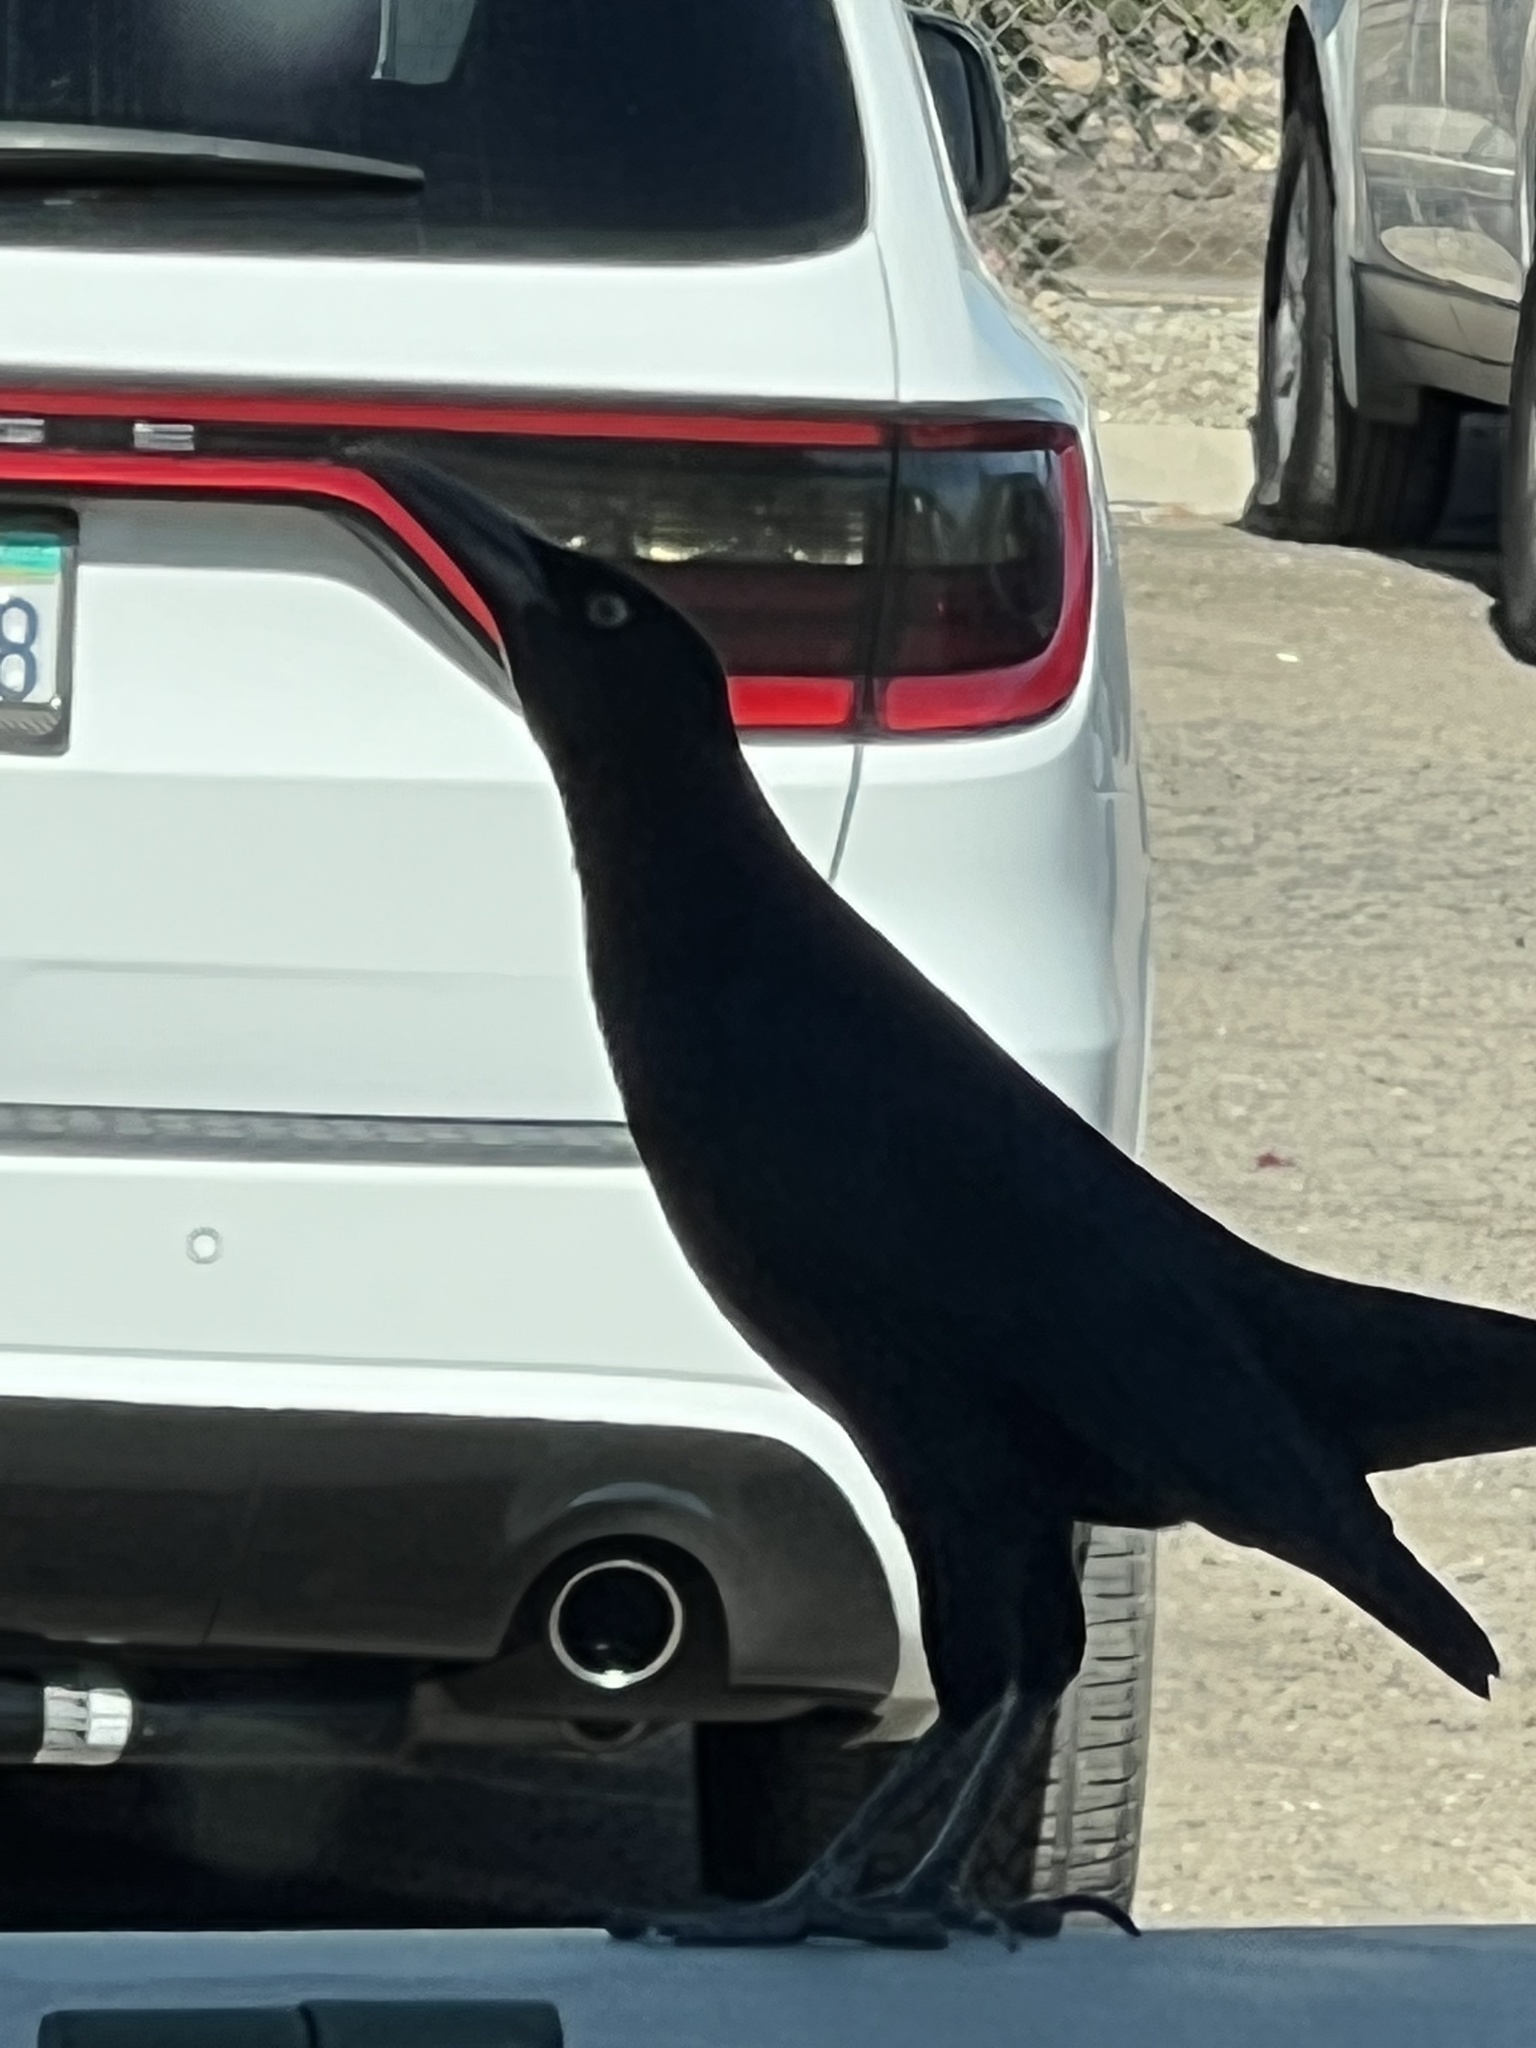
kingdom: Animalia
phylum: Chordata
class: Aves
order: Passeriformes
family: Icteridae
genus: Quiscalus
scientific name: Quiscalus mexicanus
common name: Great-tailed grackle
